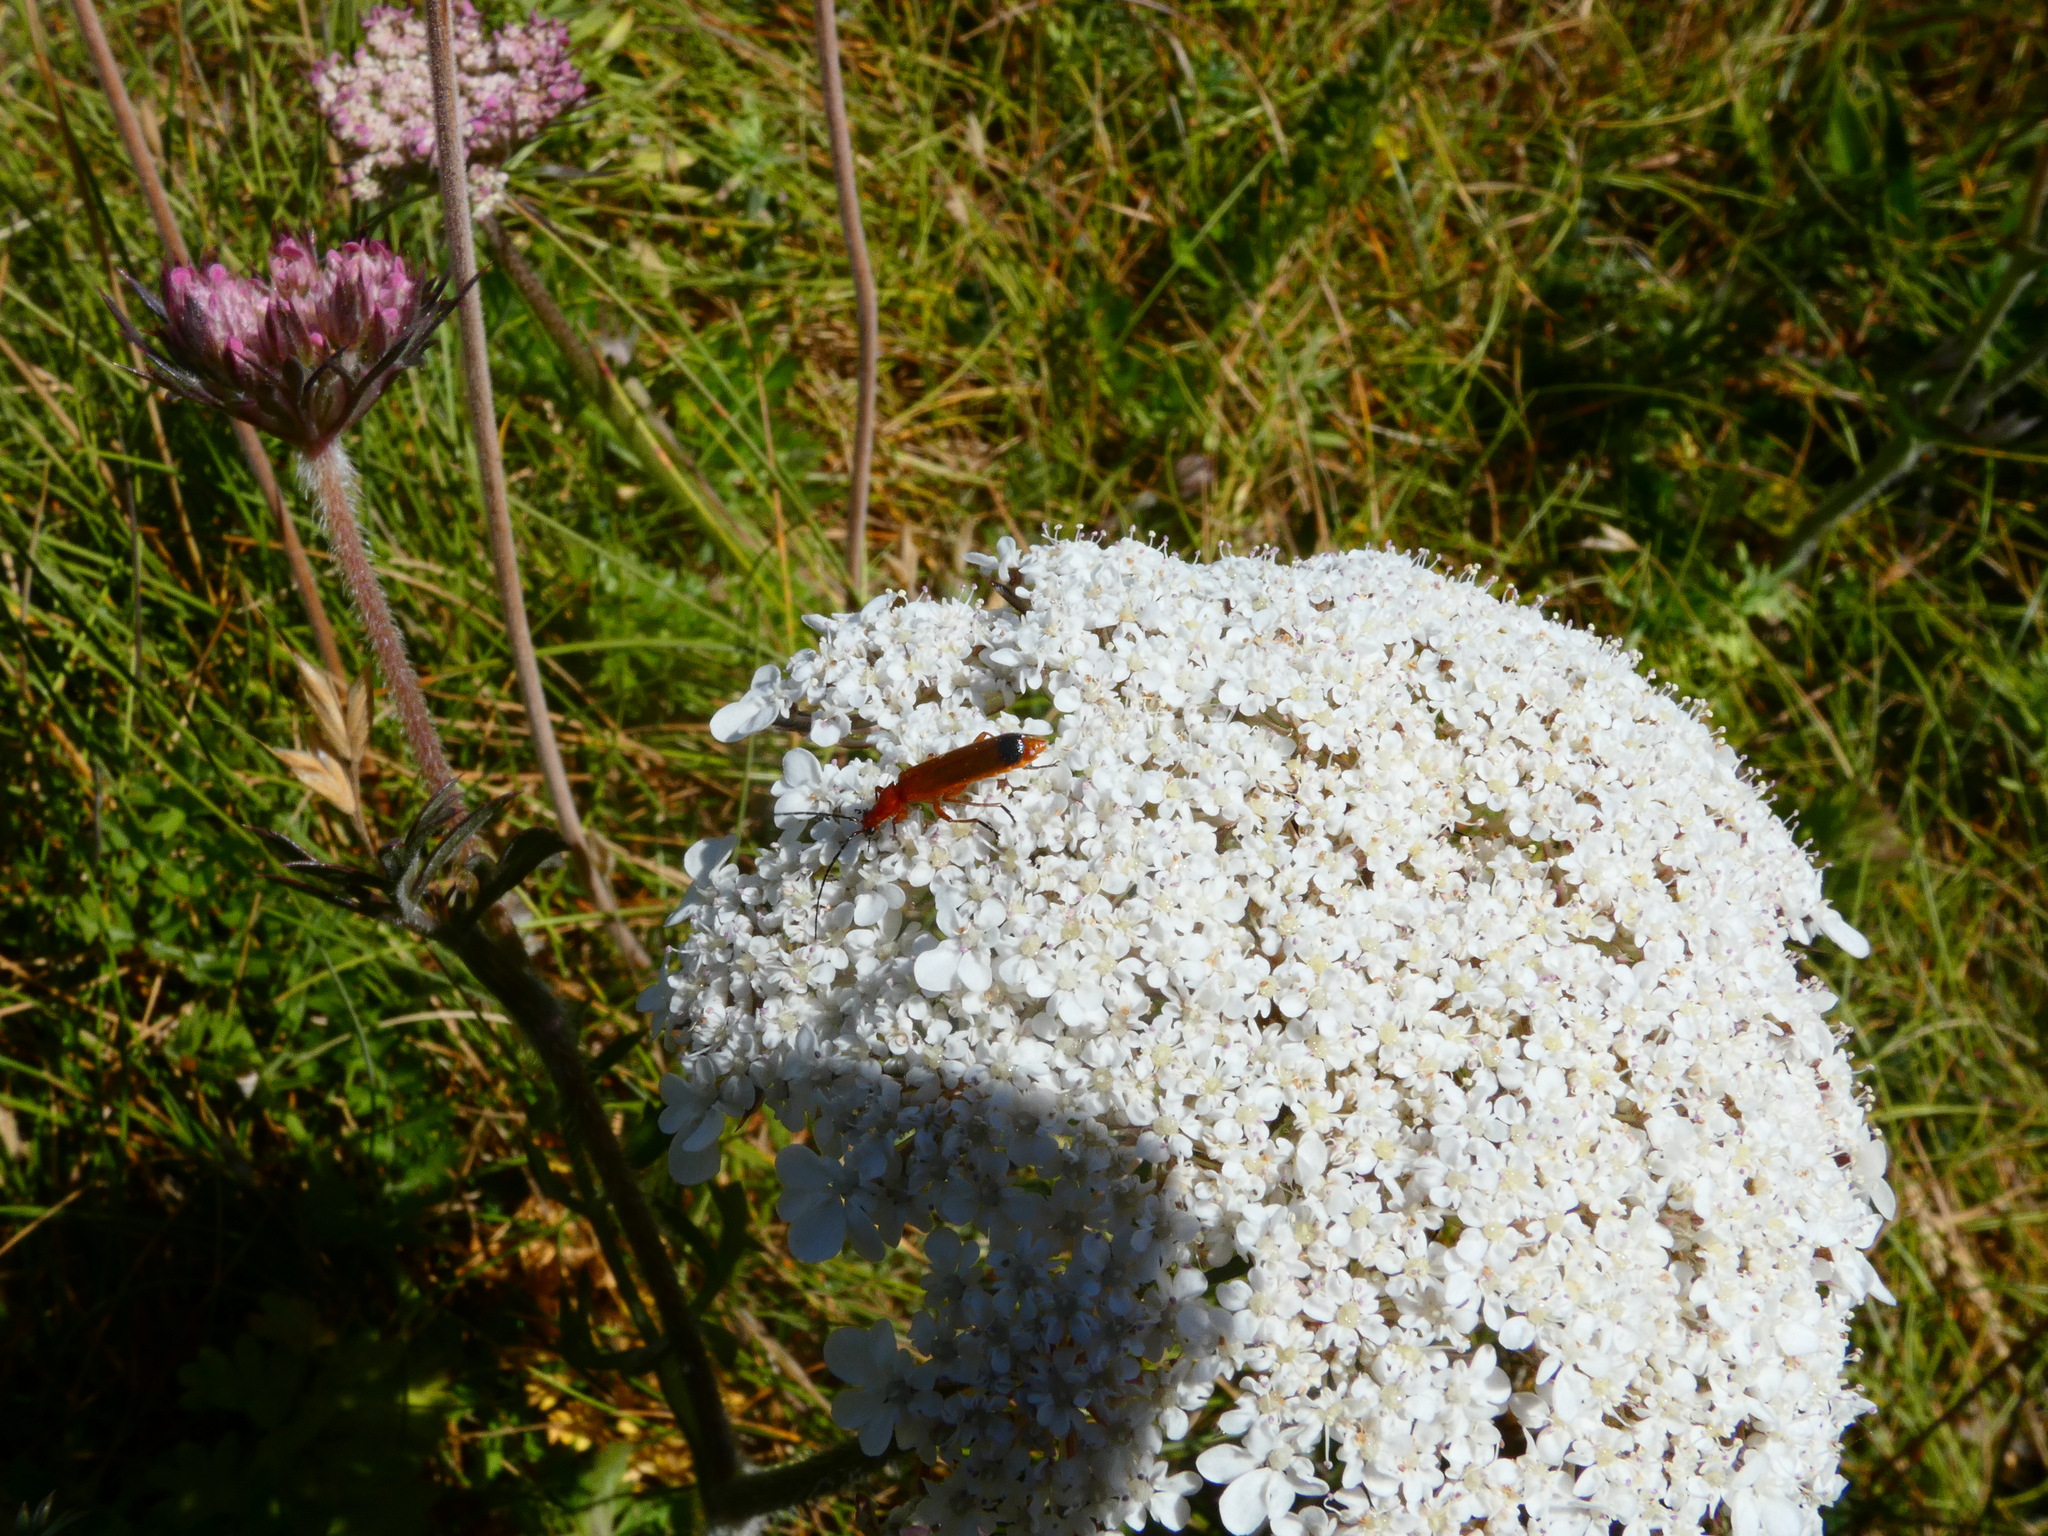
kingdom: Animalia
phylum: Arthropoda
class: Insecta
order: Coleoptera
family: Cantharidae
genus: Rhagonycha
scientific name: Rhagonycha fulva
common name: Common red soldier beetle
